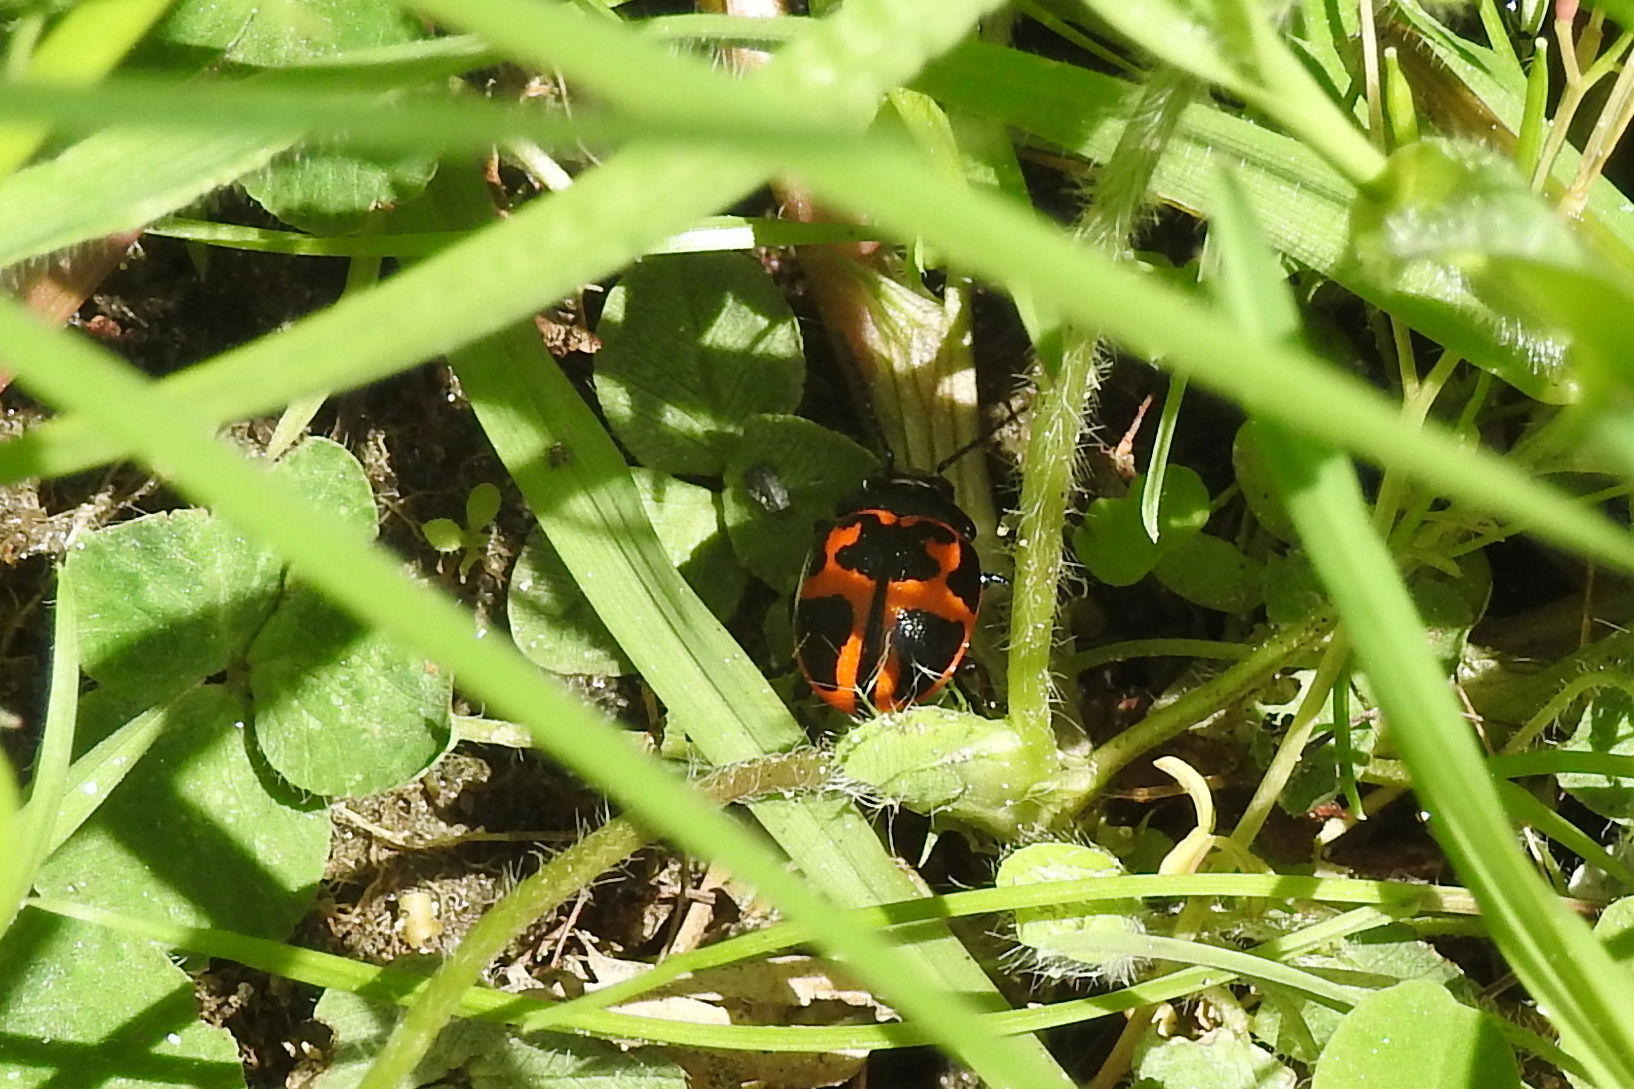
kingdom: Animalia
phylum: Arthropoda
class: Insecta
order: Coleoptera
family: Chrysomelidae
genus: Labidomera
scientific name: Labidomera clivicollis
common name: Swamp milkweed leaf beetle
